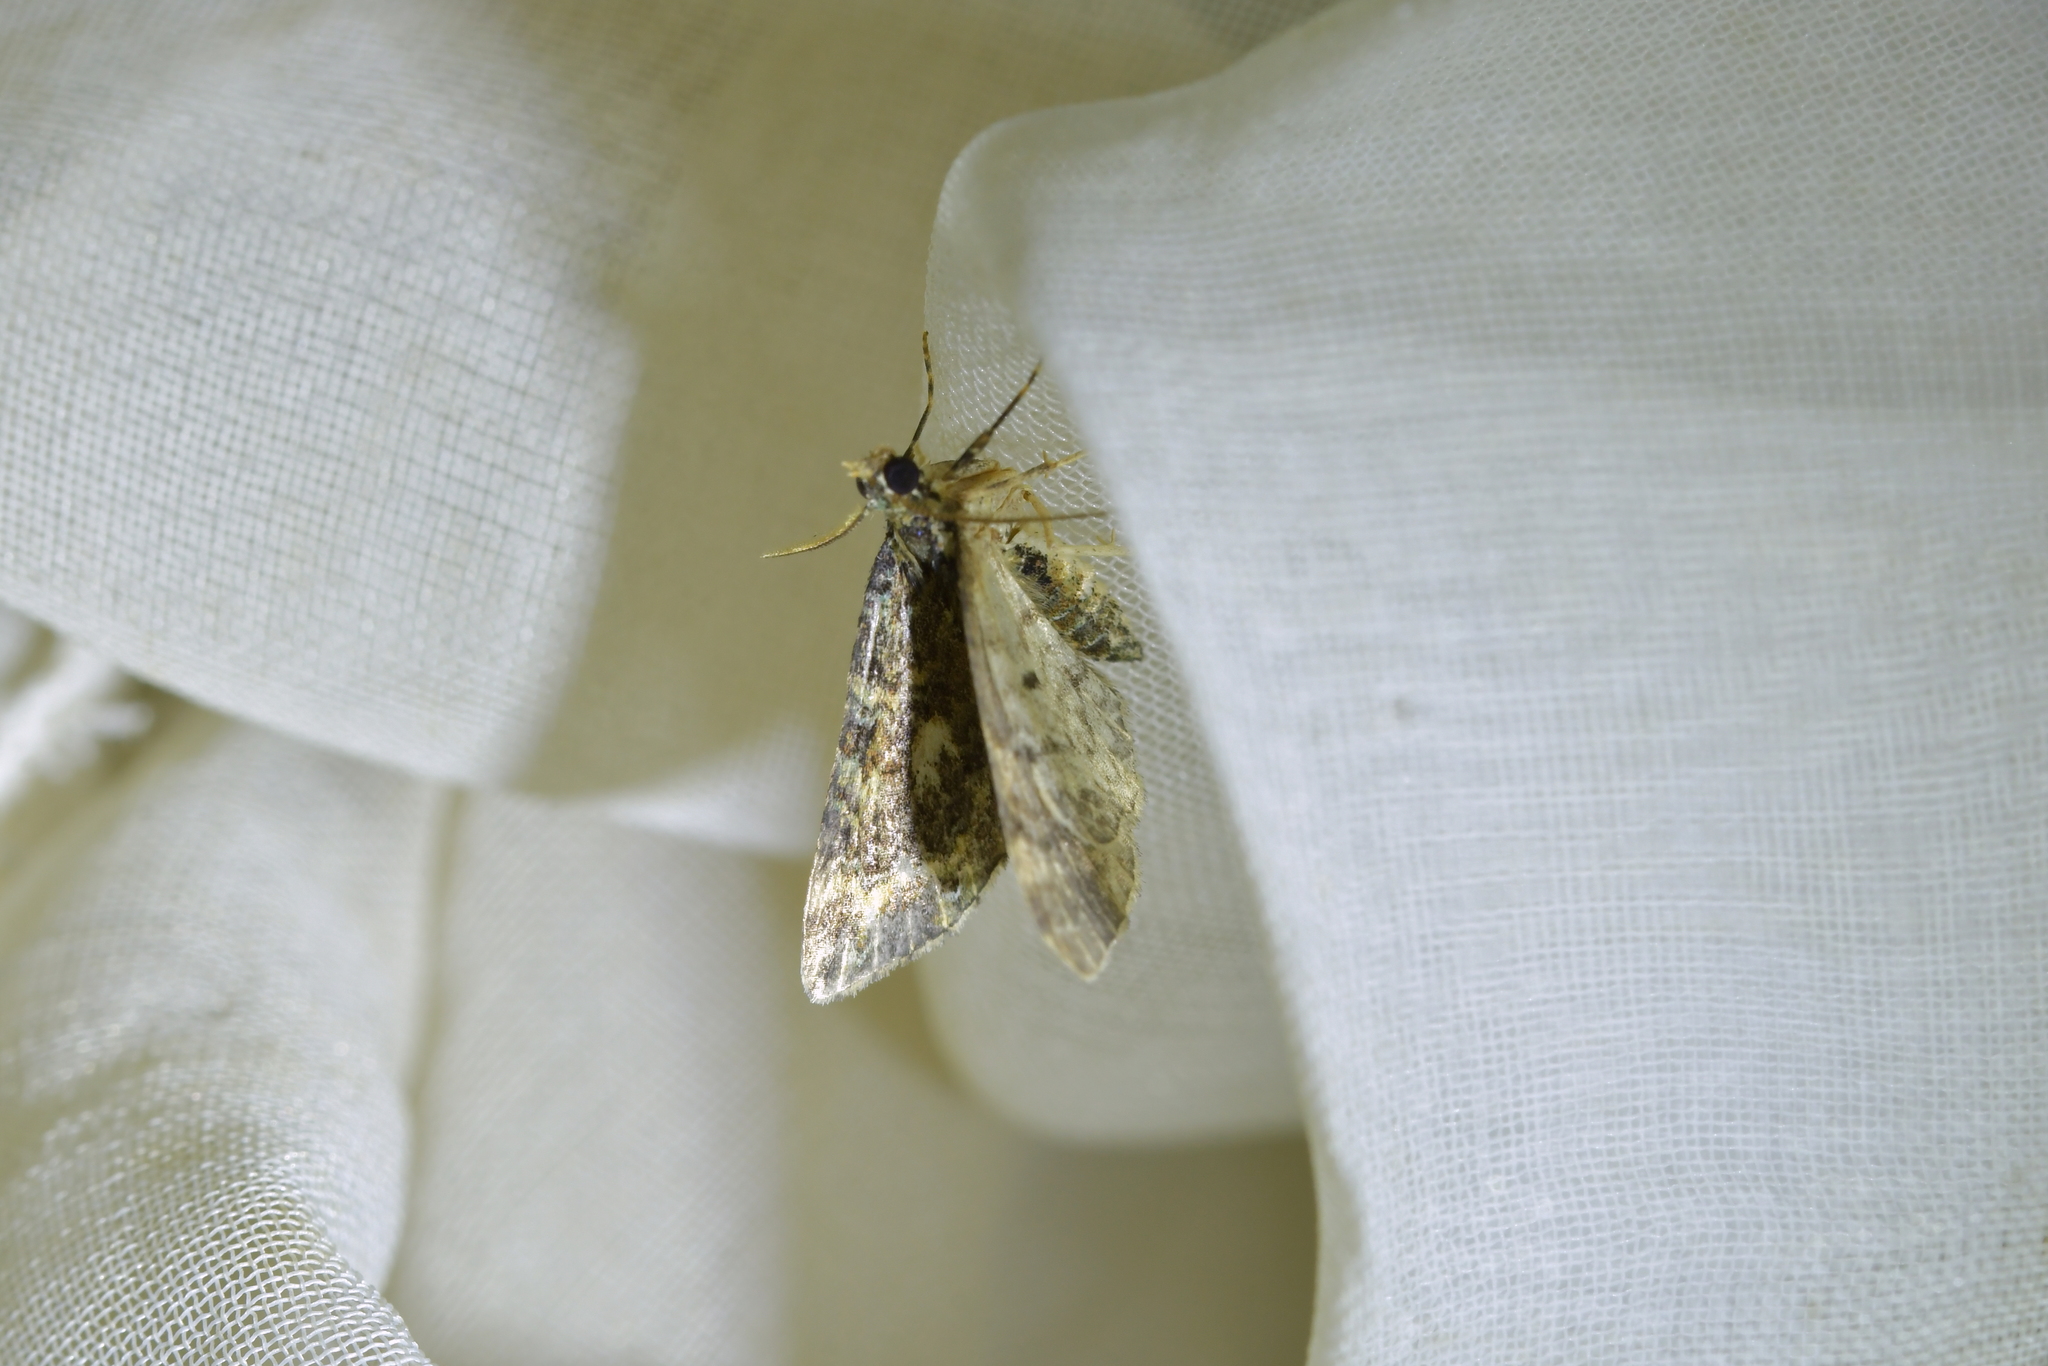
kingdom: Animalia
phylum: Arthropoda
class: Insecta
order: Lepidoptera
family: Geometridae
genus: Pasiphila
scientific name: Pasiphila lunata
